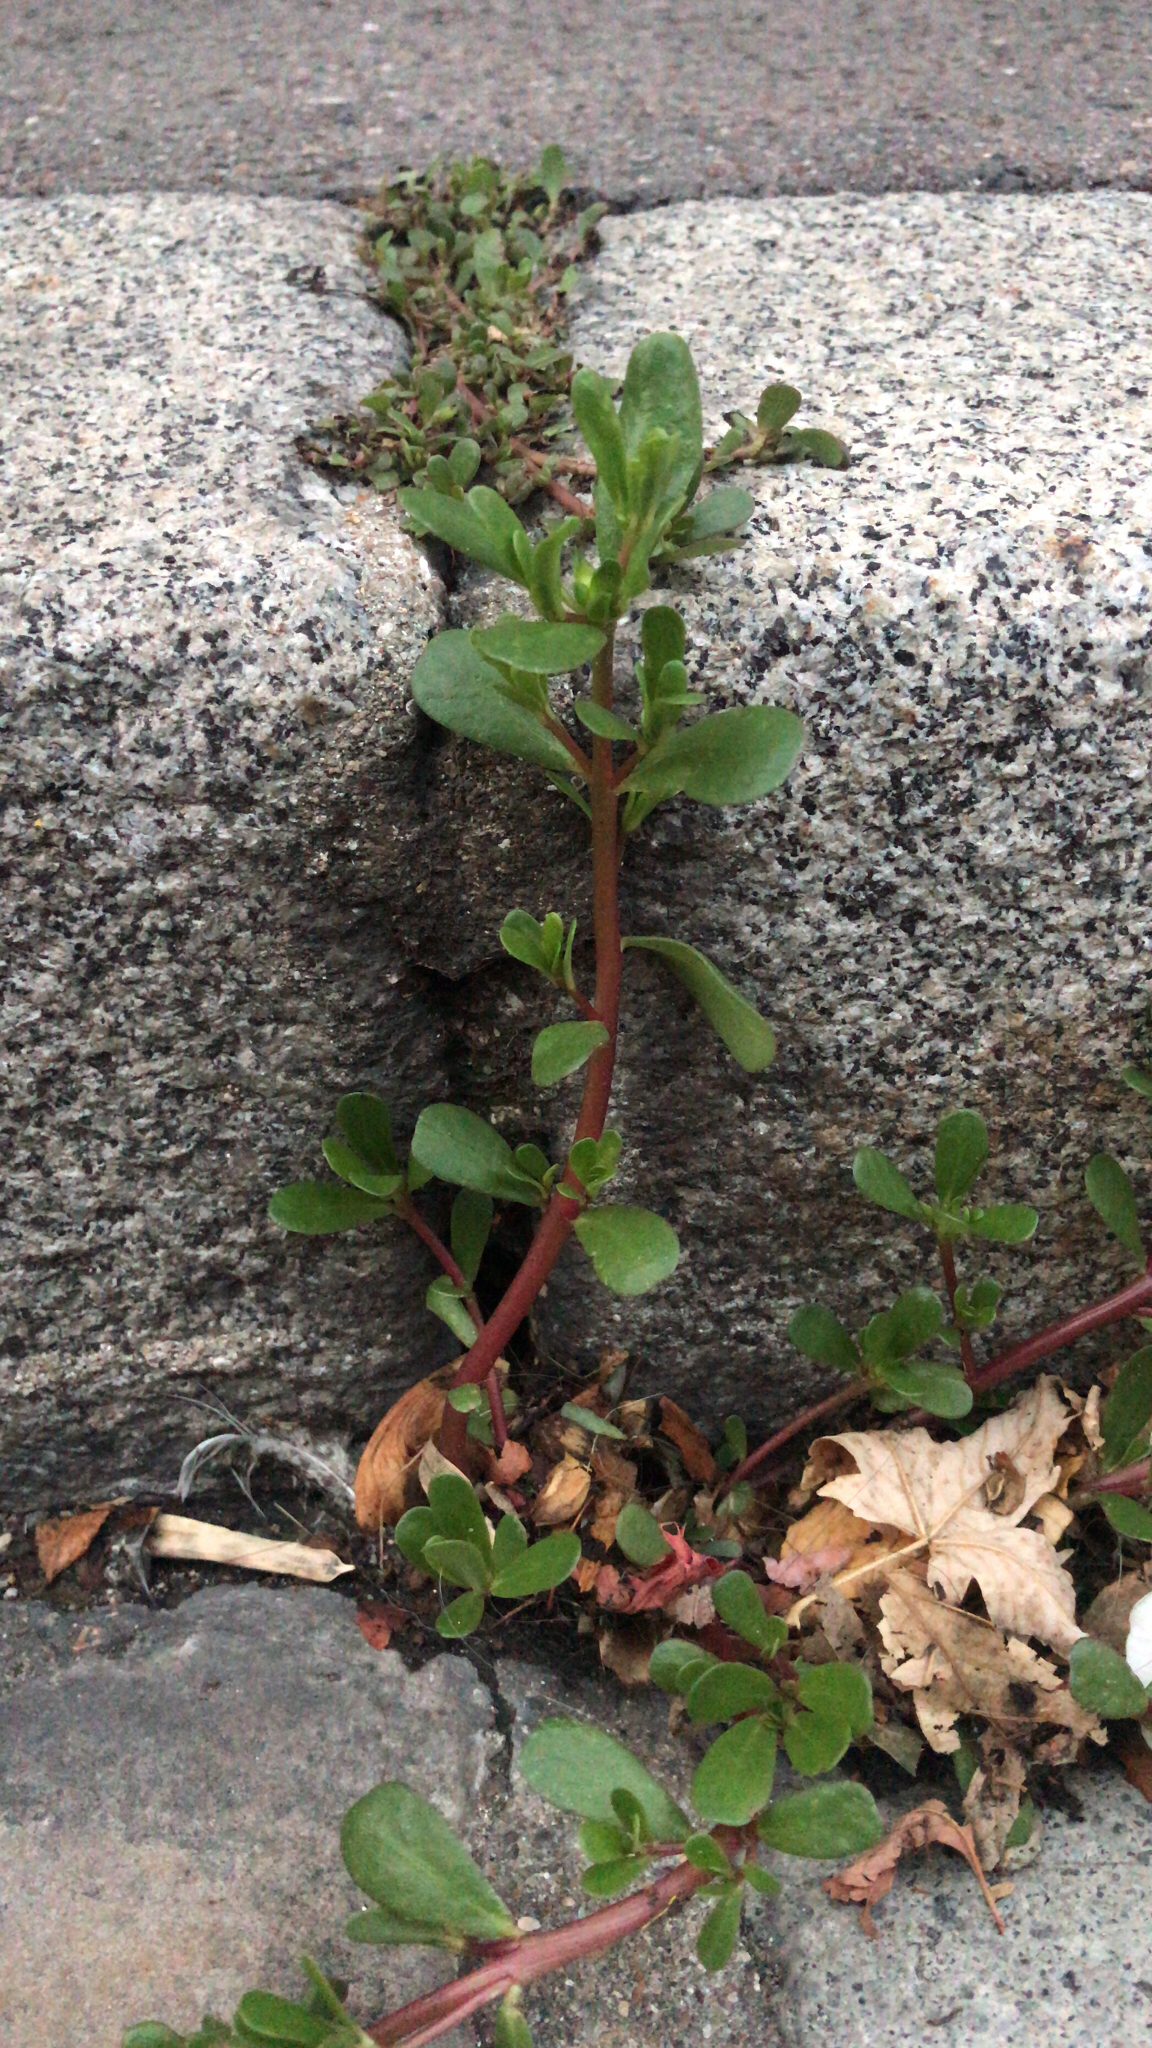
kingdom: Plantae
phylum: Tracheophyta
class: Magnoliopsida
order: Caryophyllales
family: Portulacaceae
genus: Portulaca
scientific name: Portulaca oleracea
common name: Common purslane
